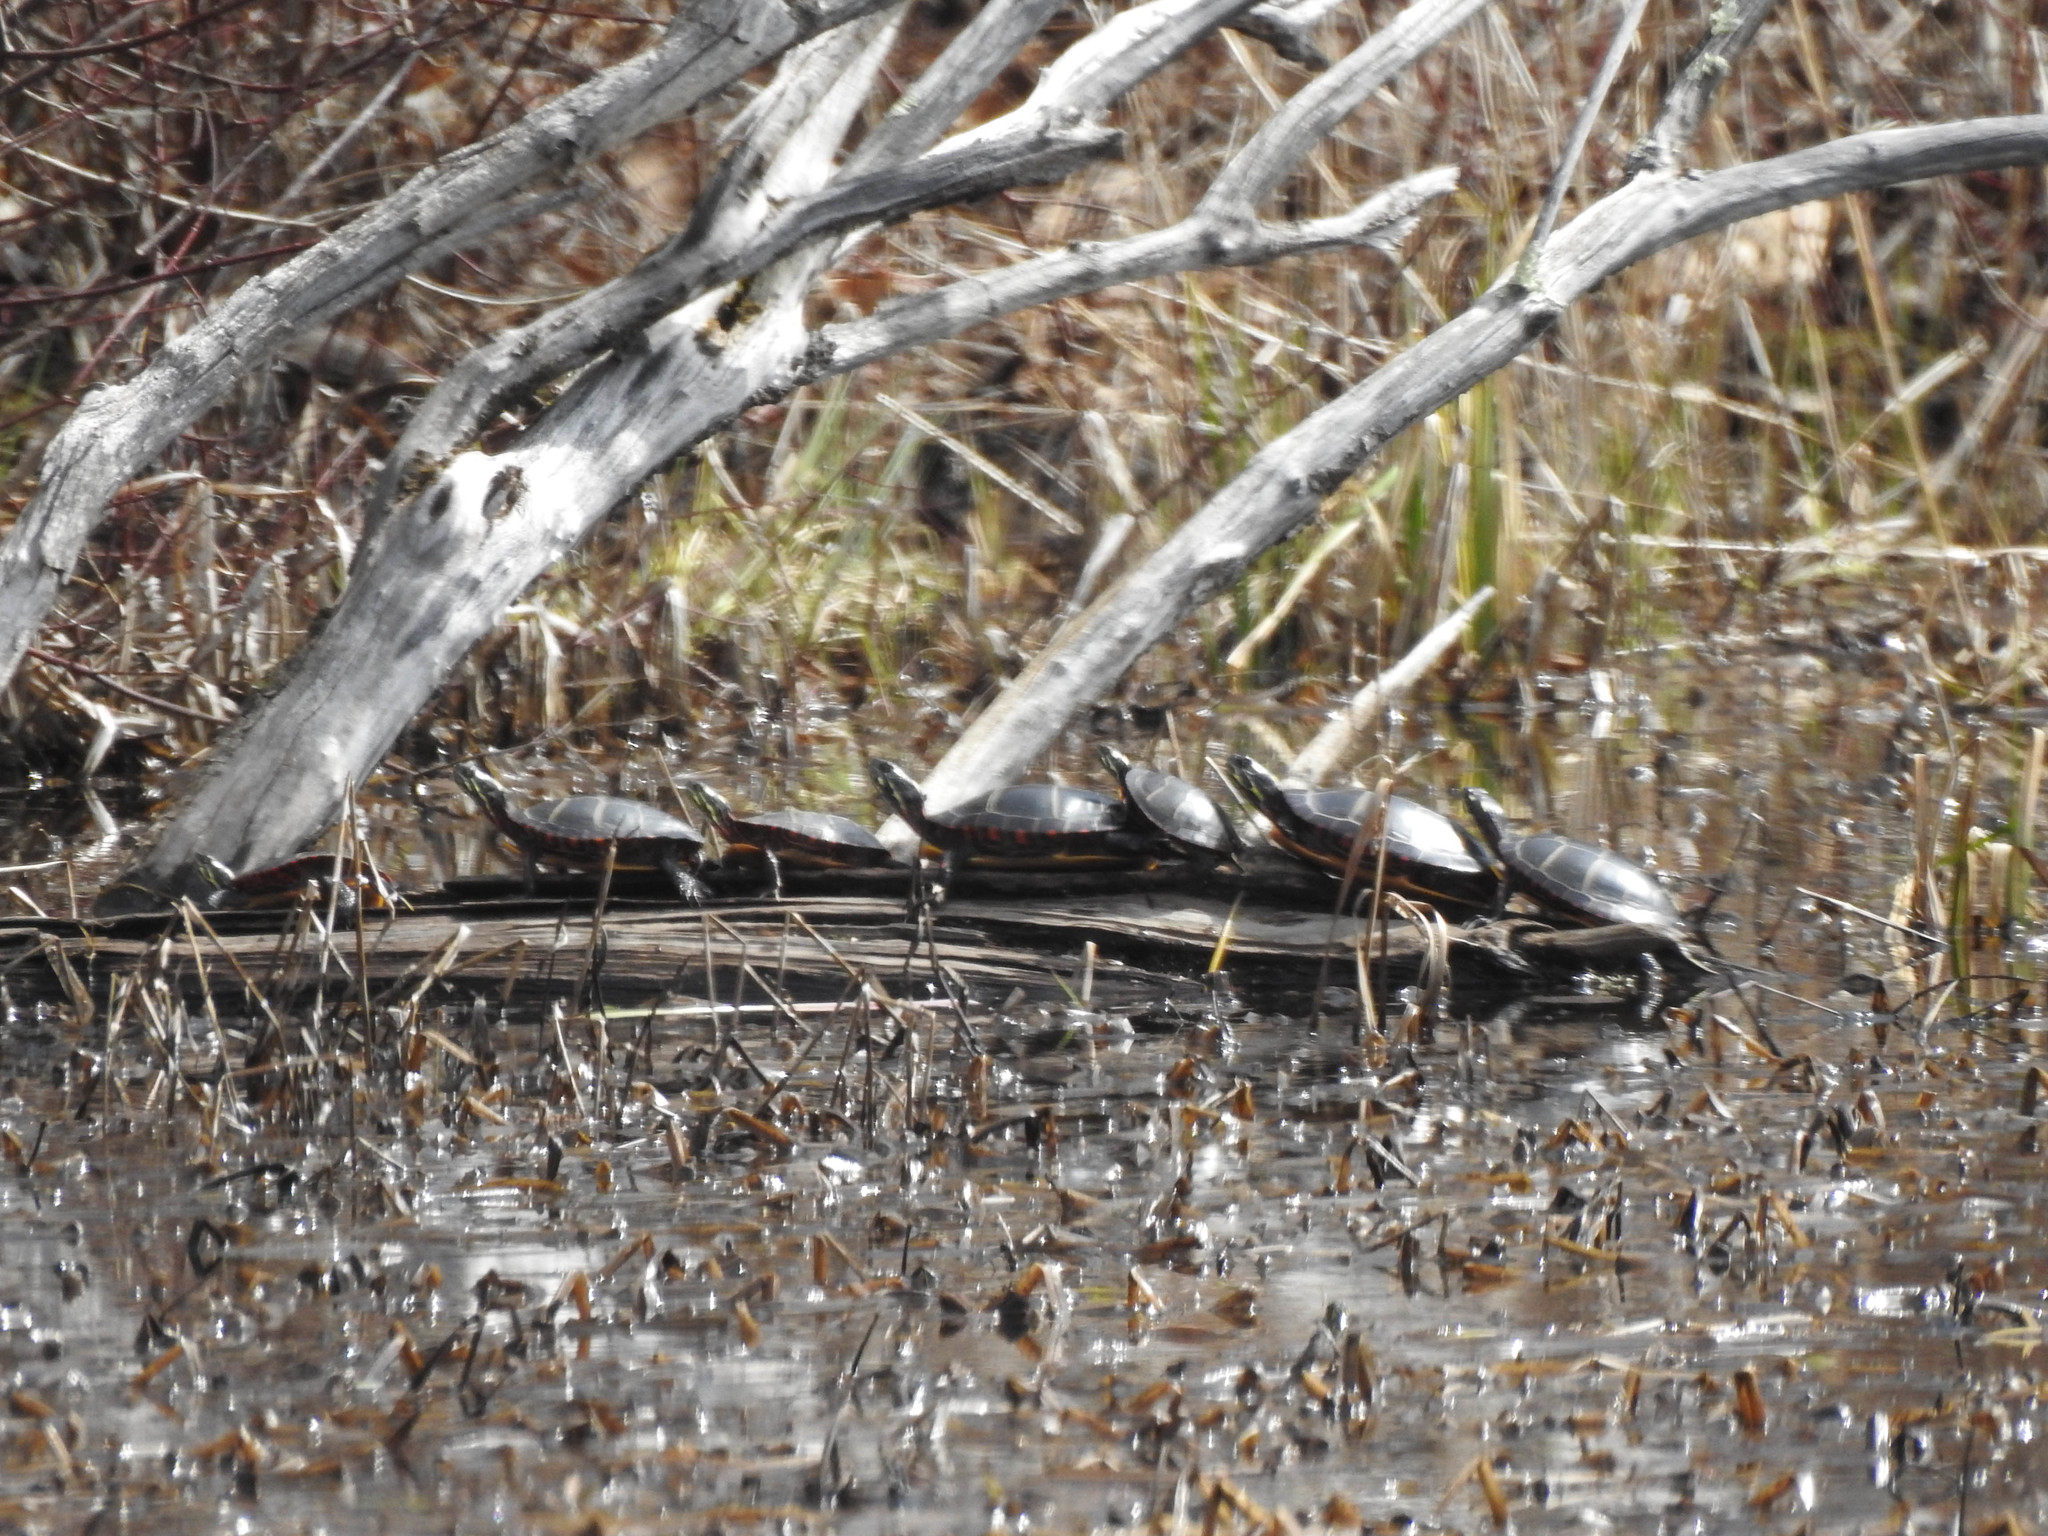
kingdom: Animalia
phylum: Chordata
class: Testudines
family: Emydidae
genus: Chrysemys
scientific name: Chrysemys picta
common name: Painted turtle
